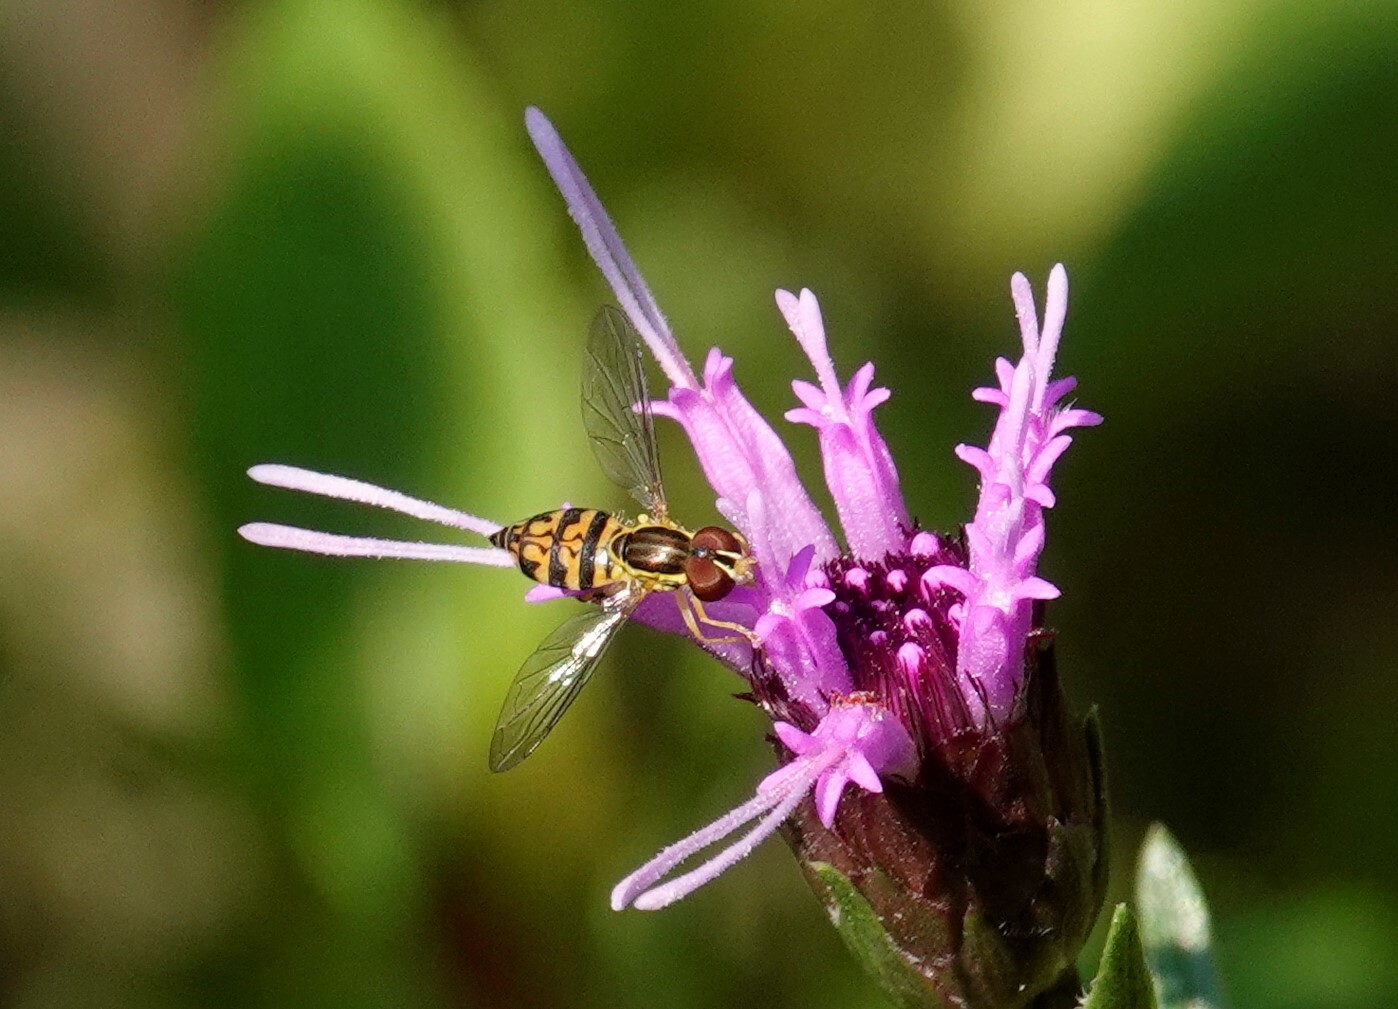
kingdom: Animalia
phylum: Arthropoda
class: Insecta
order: Diptera
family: Syrphidae
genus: Toxomerus
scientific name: Toxomerus geminatus
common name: Eastern calligrapher
